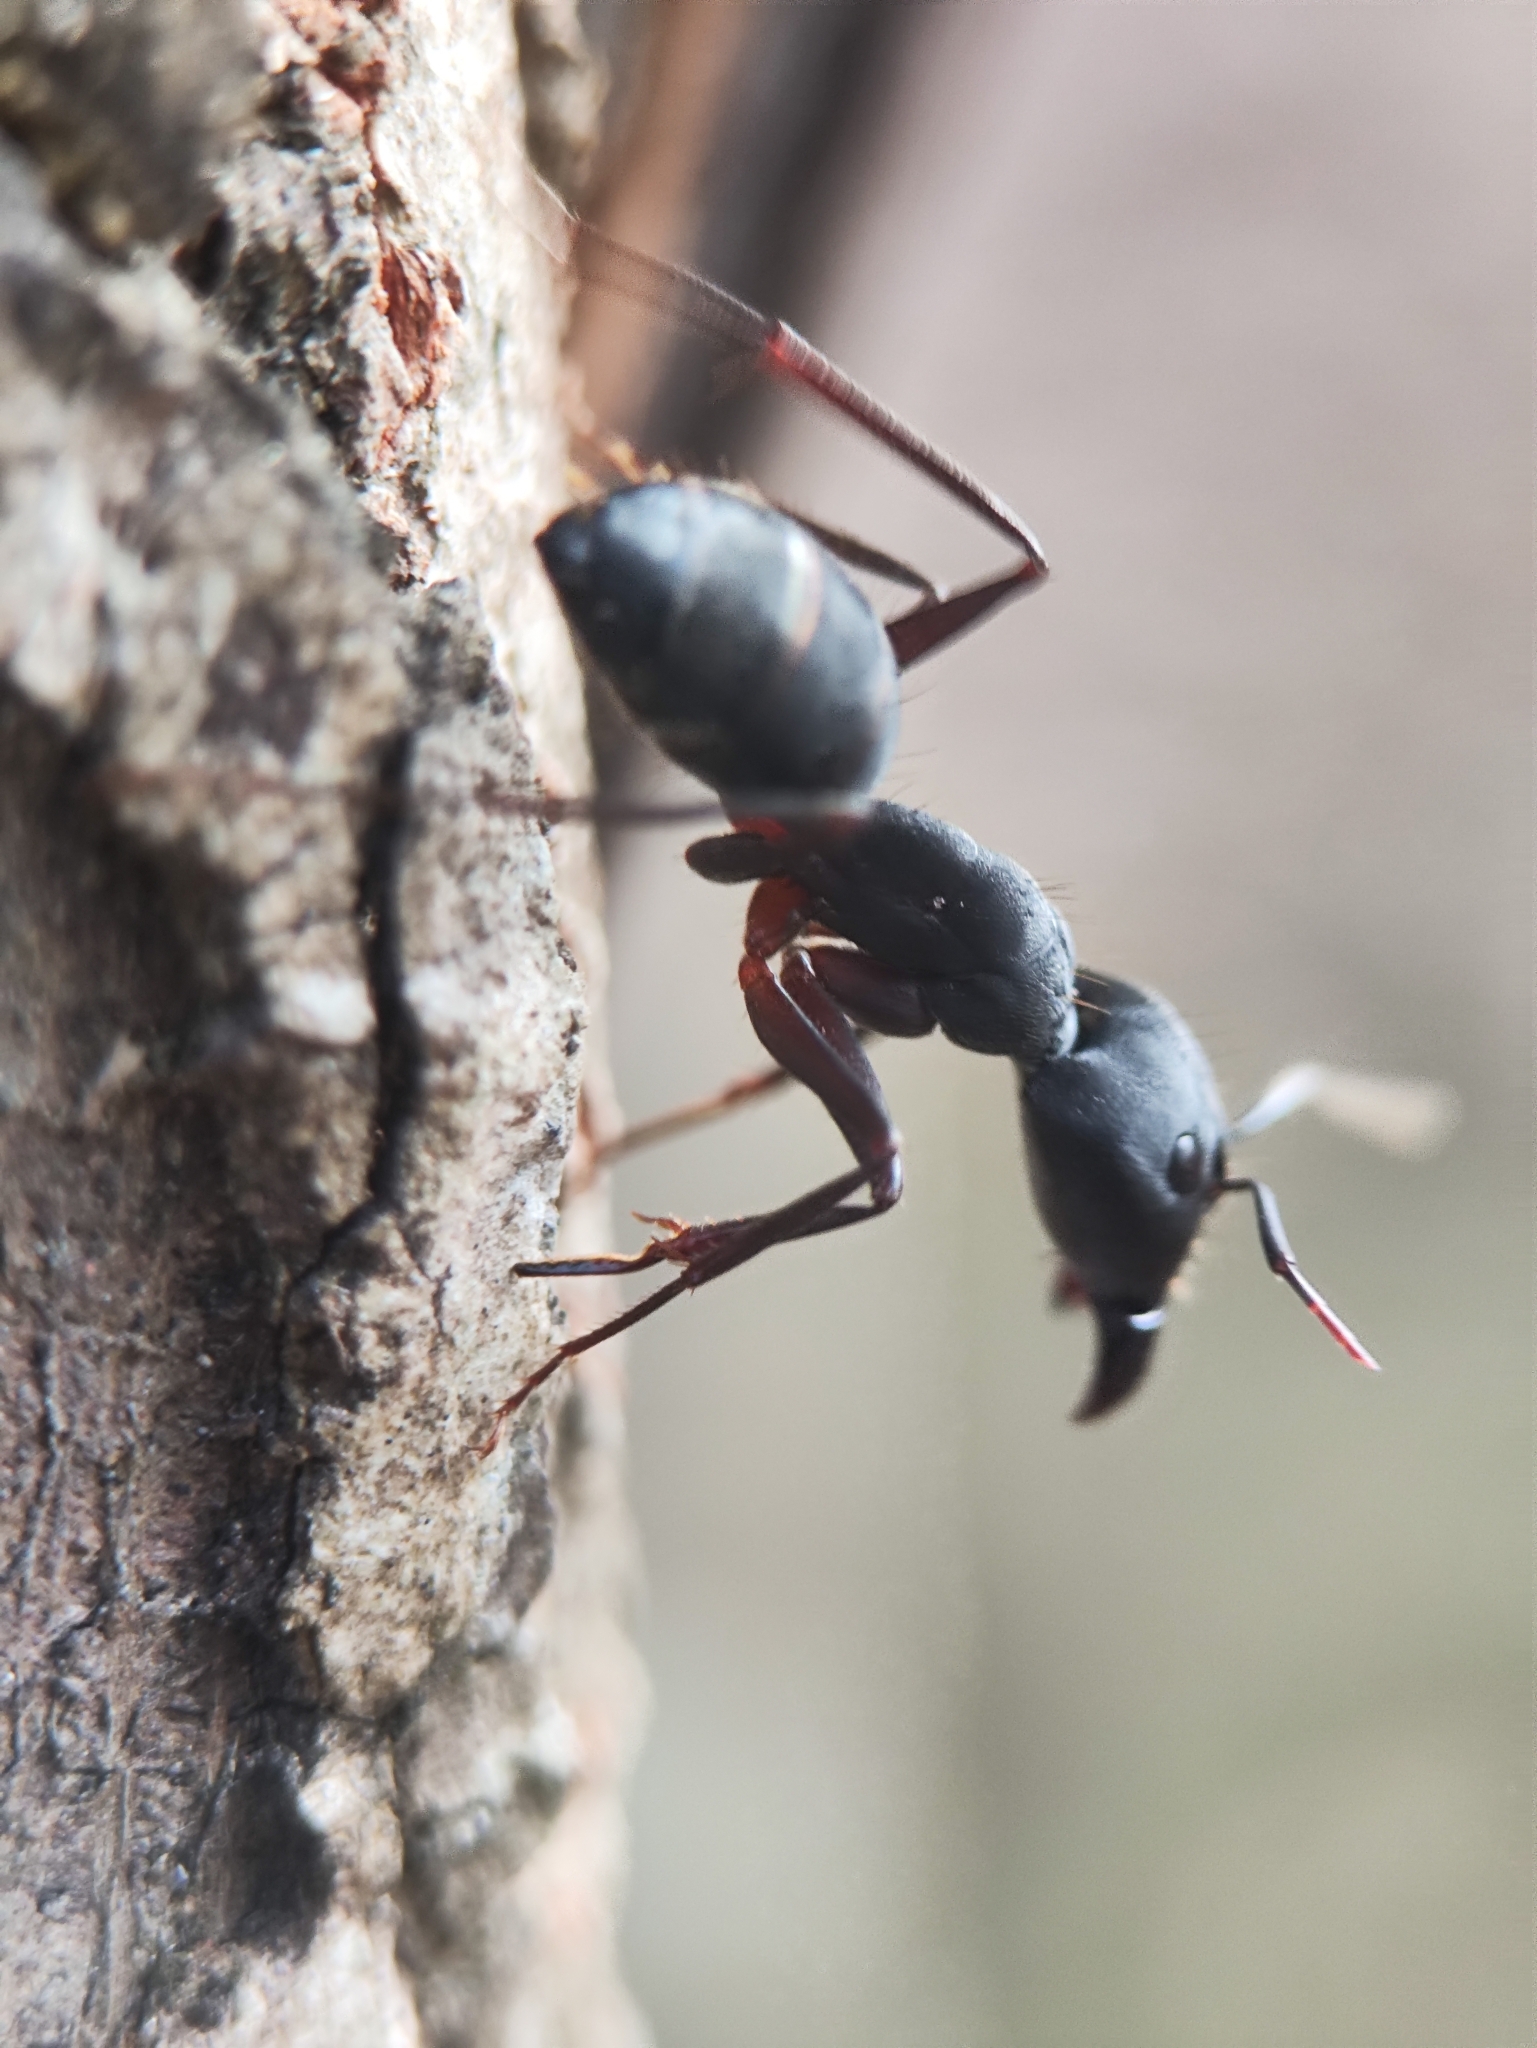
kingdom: Animalia
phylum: Arthropoda
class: Insecta
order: Hymenoptera
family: Formicidae
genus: Camponotus
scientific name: Camponotus compressus
